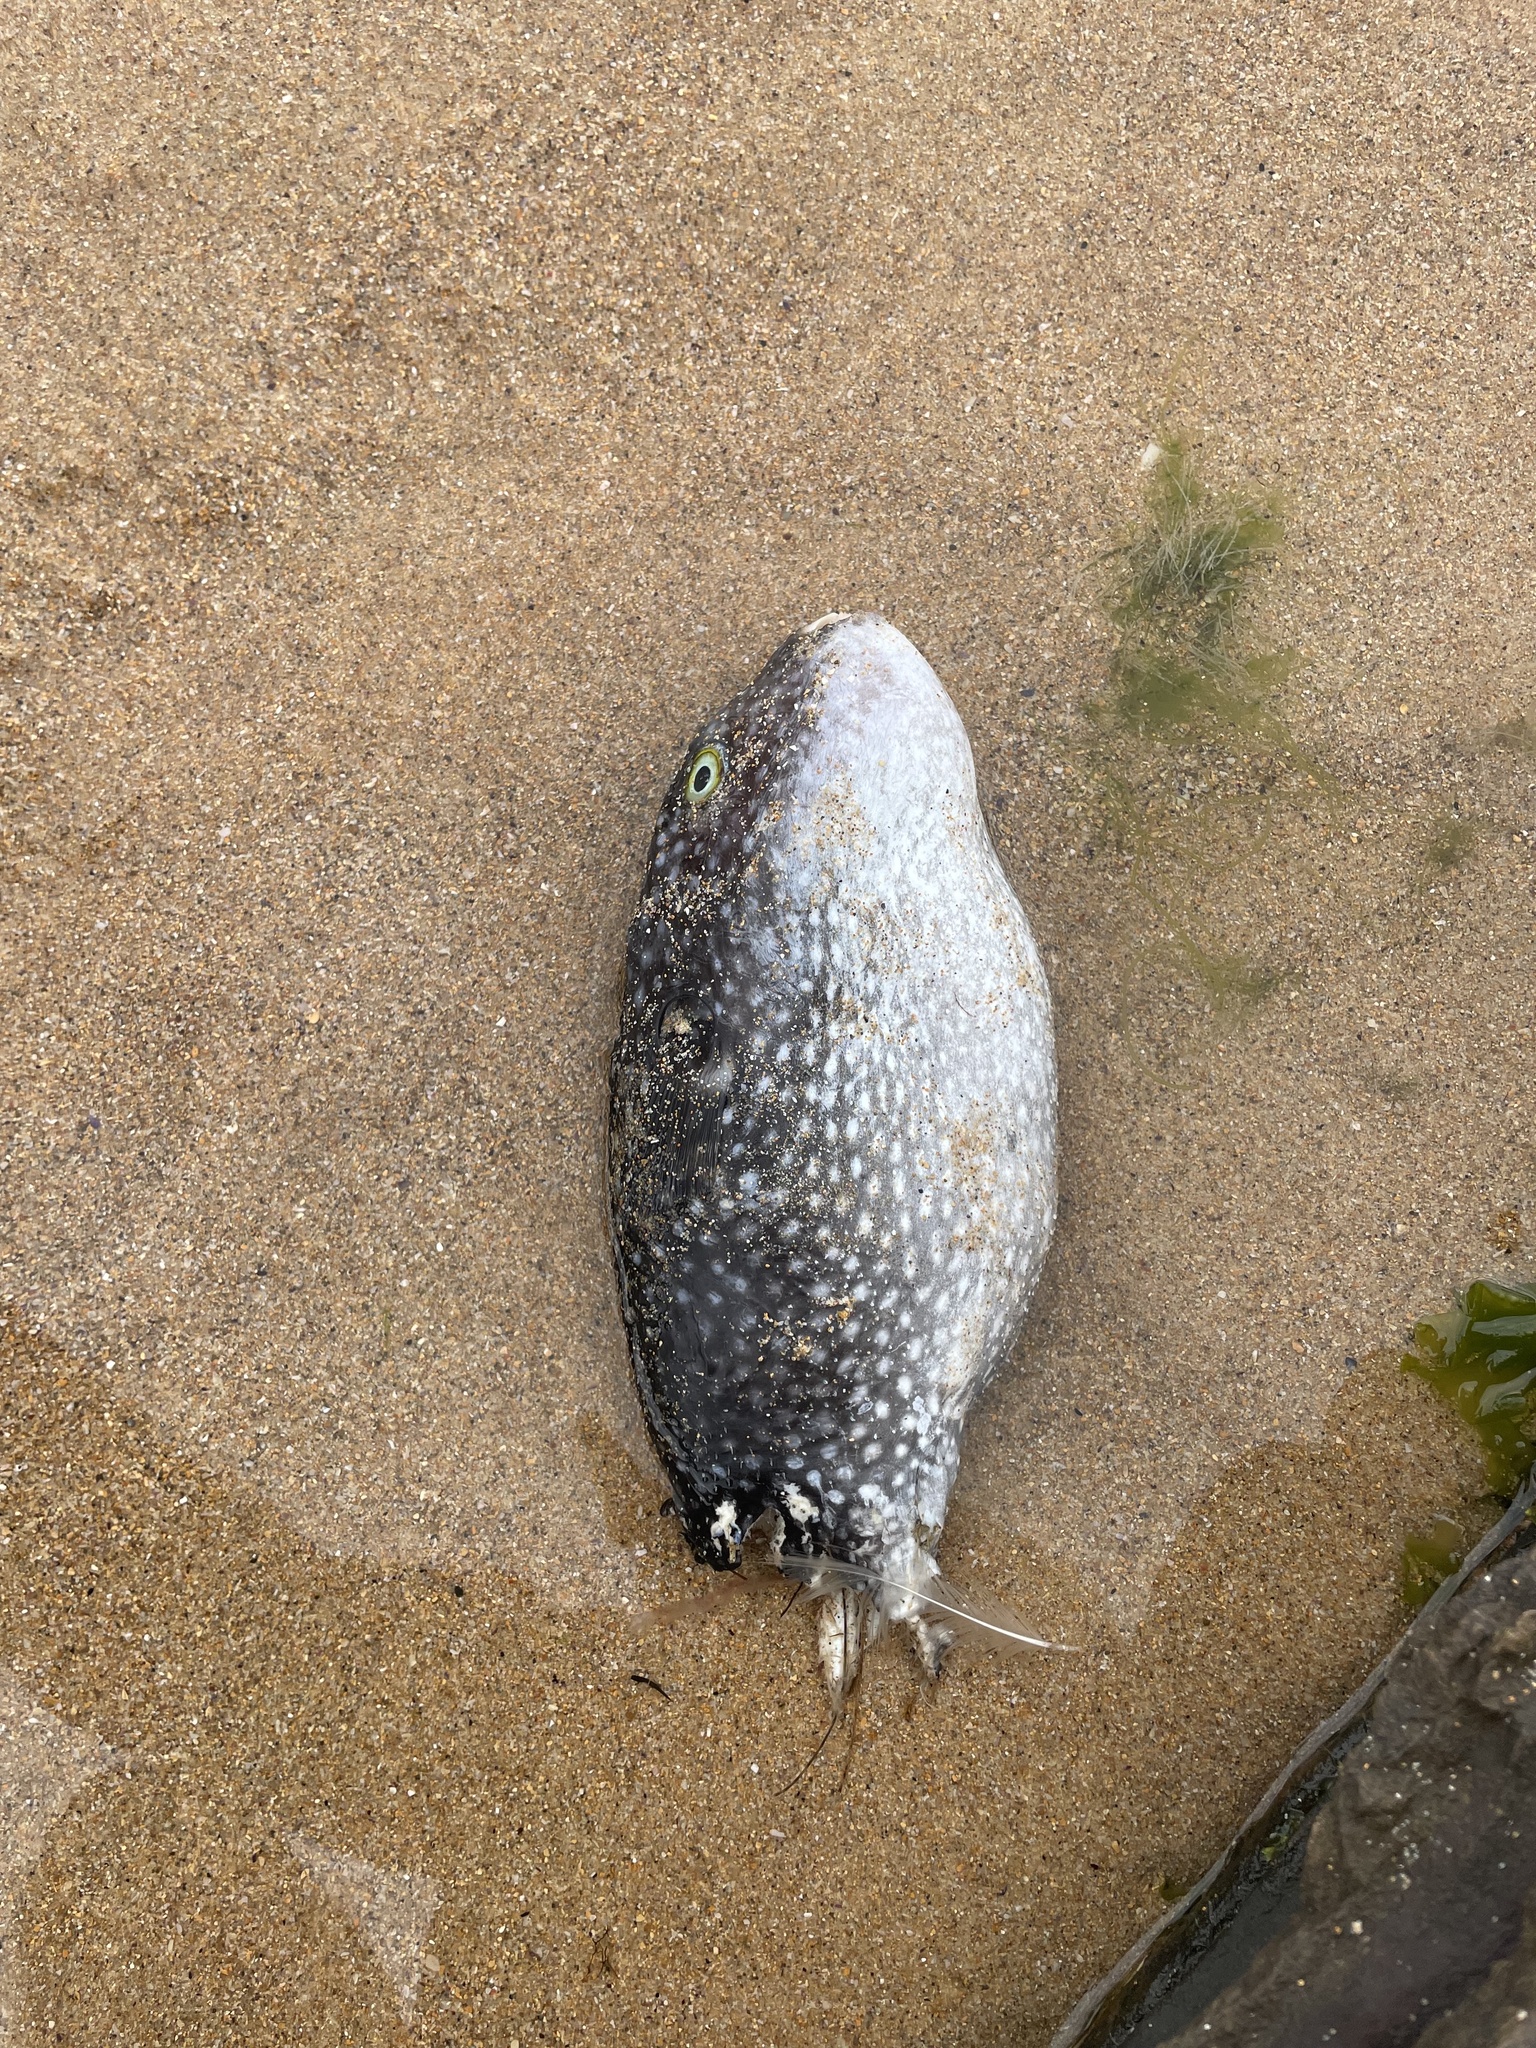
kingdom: Animalia
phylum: Chordata
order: Tetraodontiformes
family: Tetraodontidae
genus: Arothron
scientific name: Arothron firmamentum
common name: Starry toado
